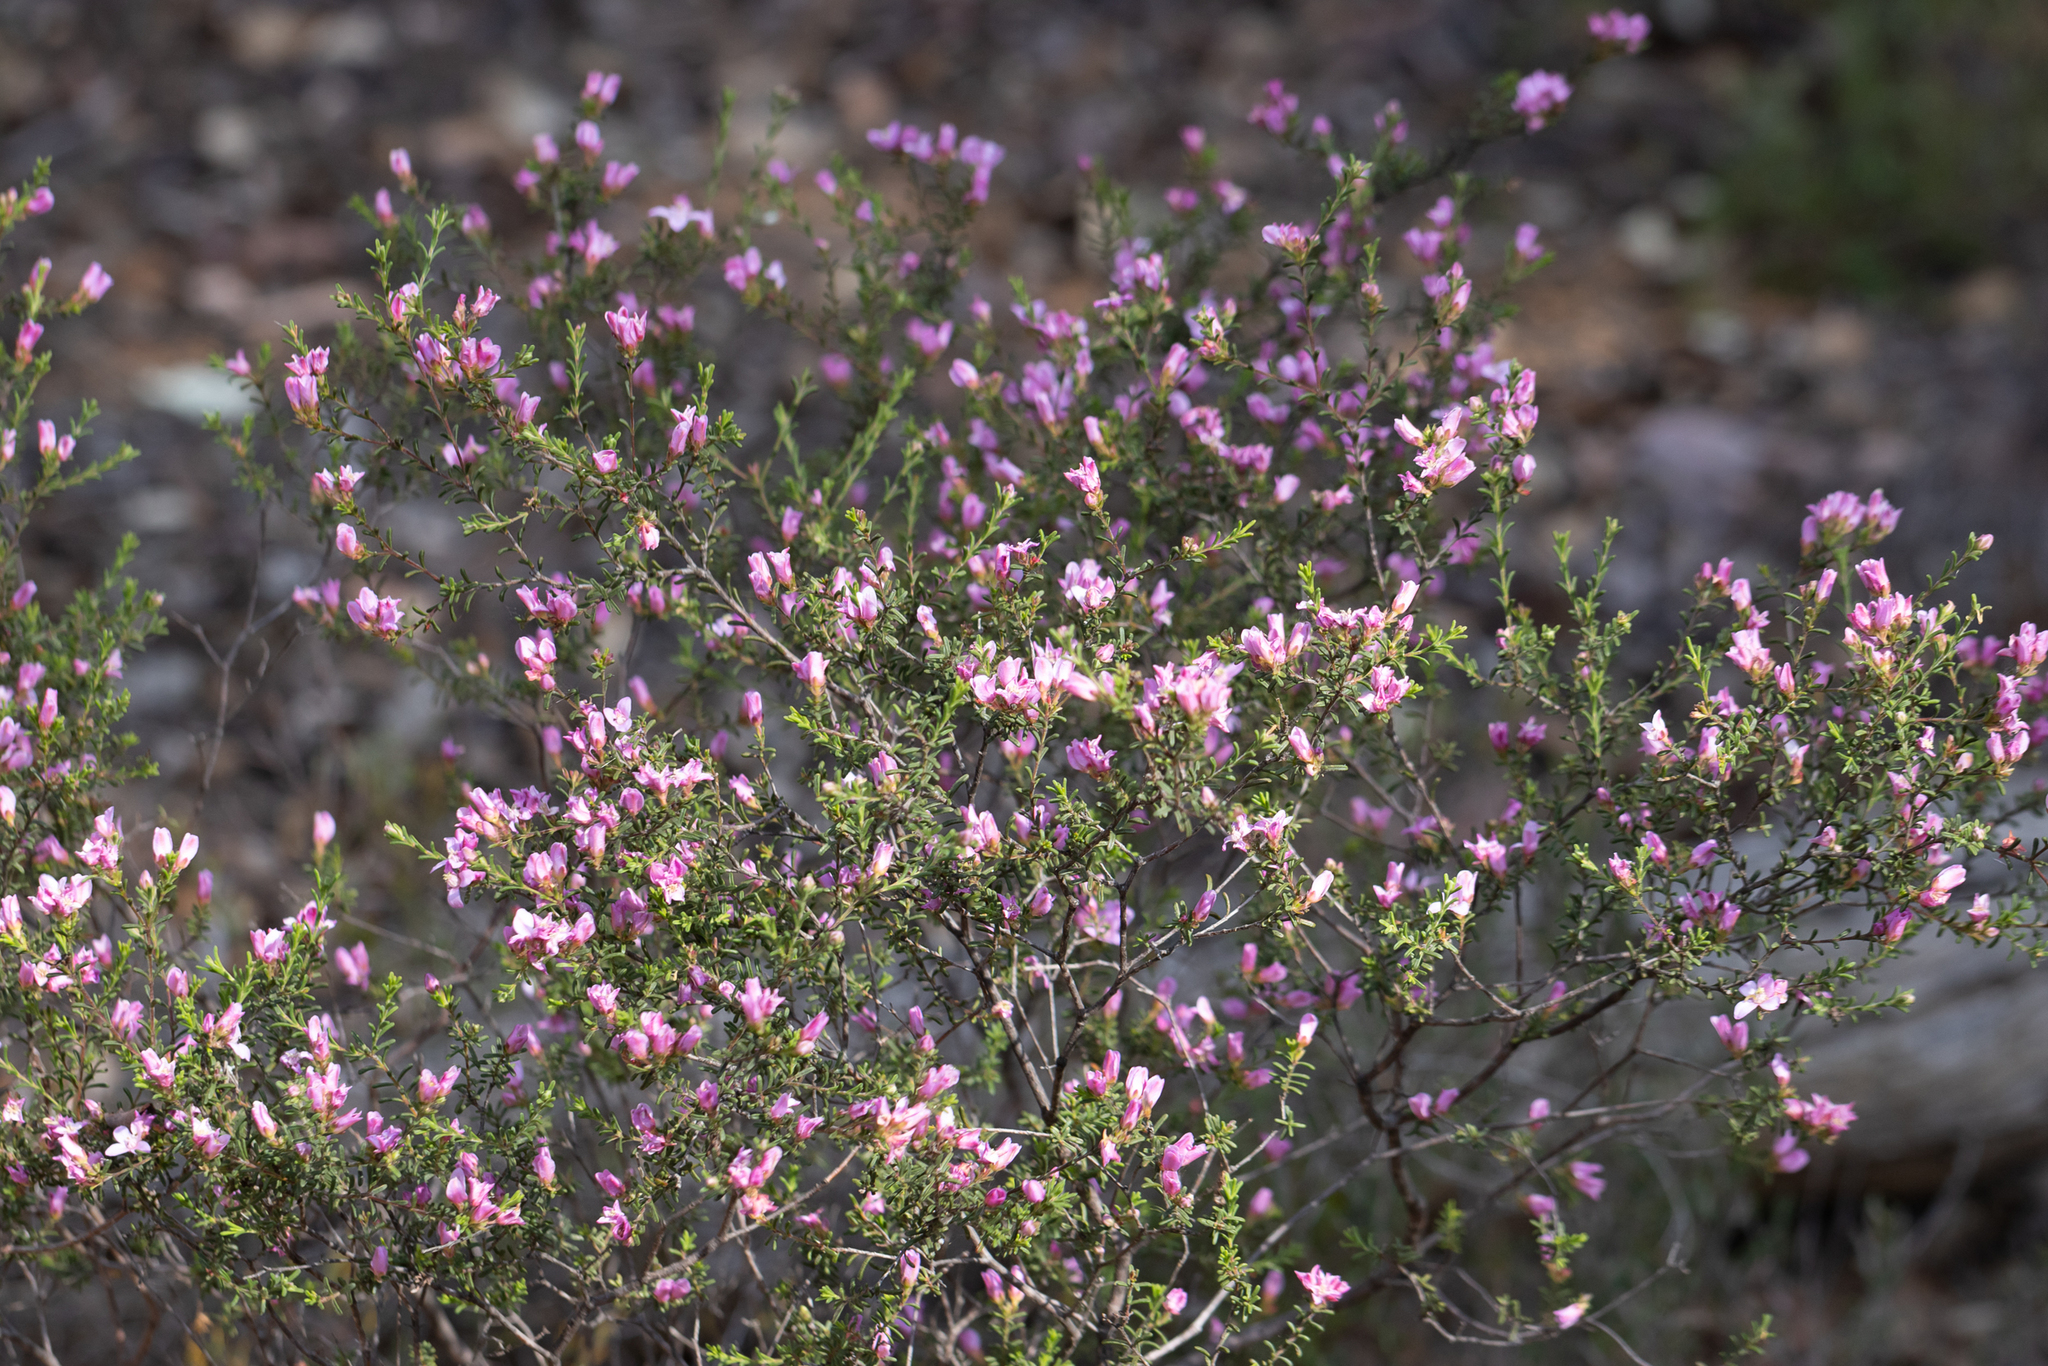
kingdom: Plantae
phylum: Tracheophyta
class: Magnoliopsida
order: Sapindales
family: Rutaceae
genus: Boronia
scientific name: Boronia capitata
